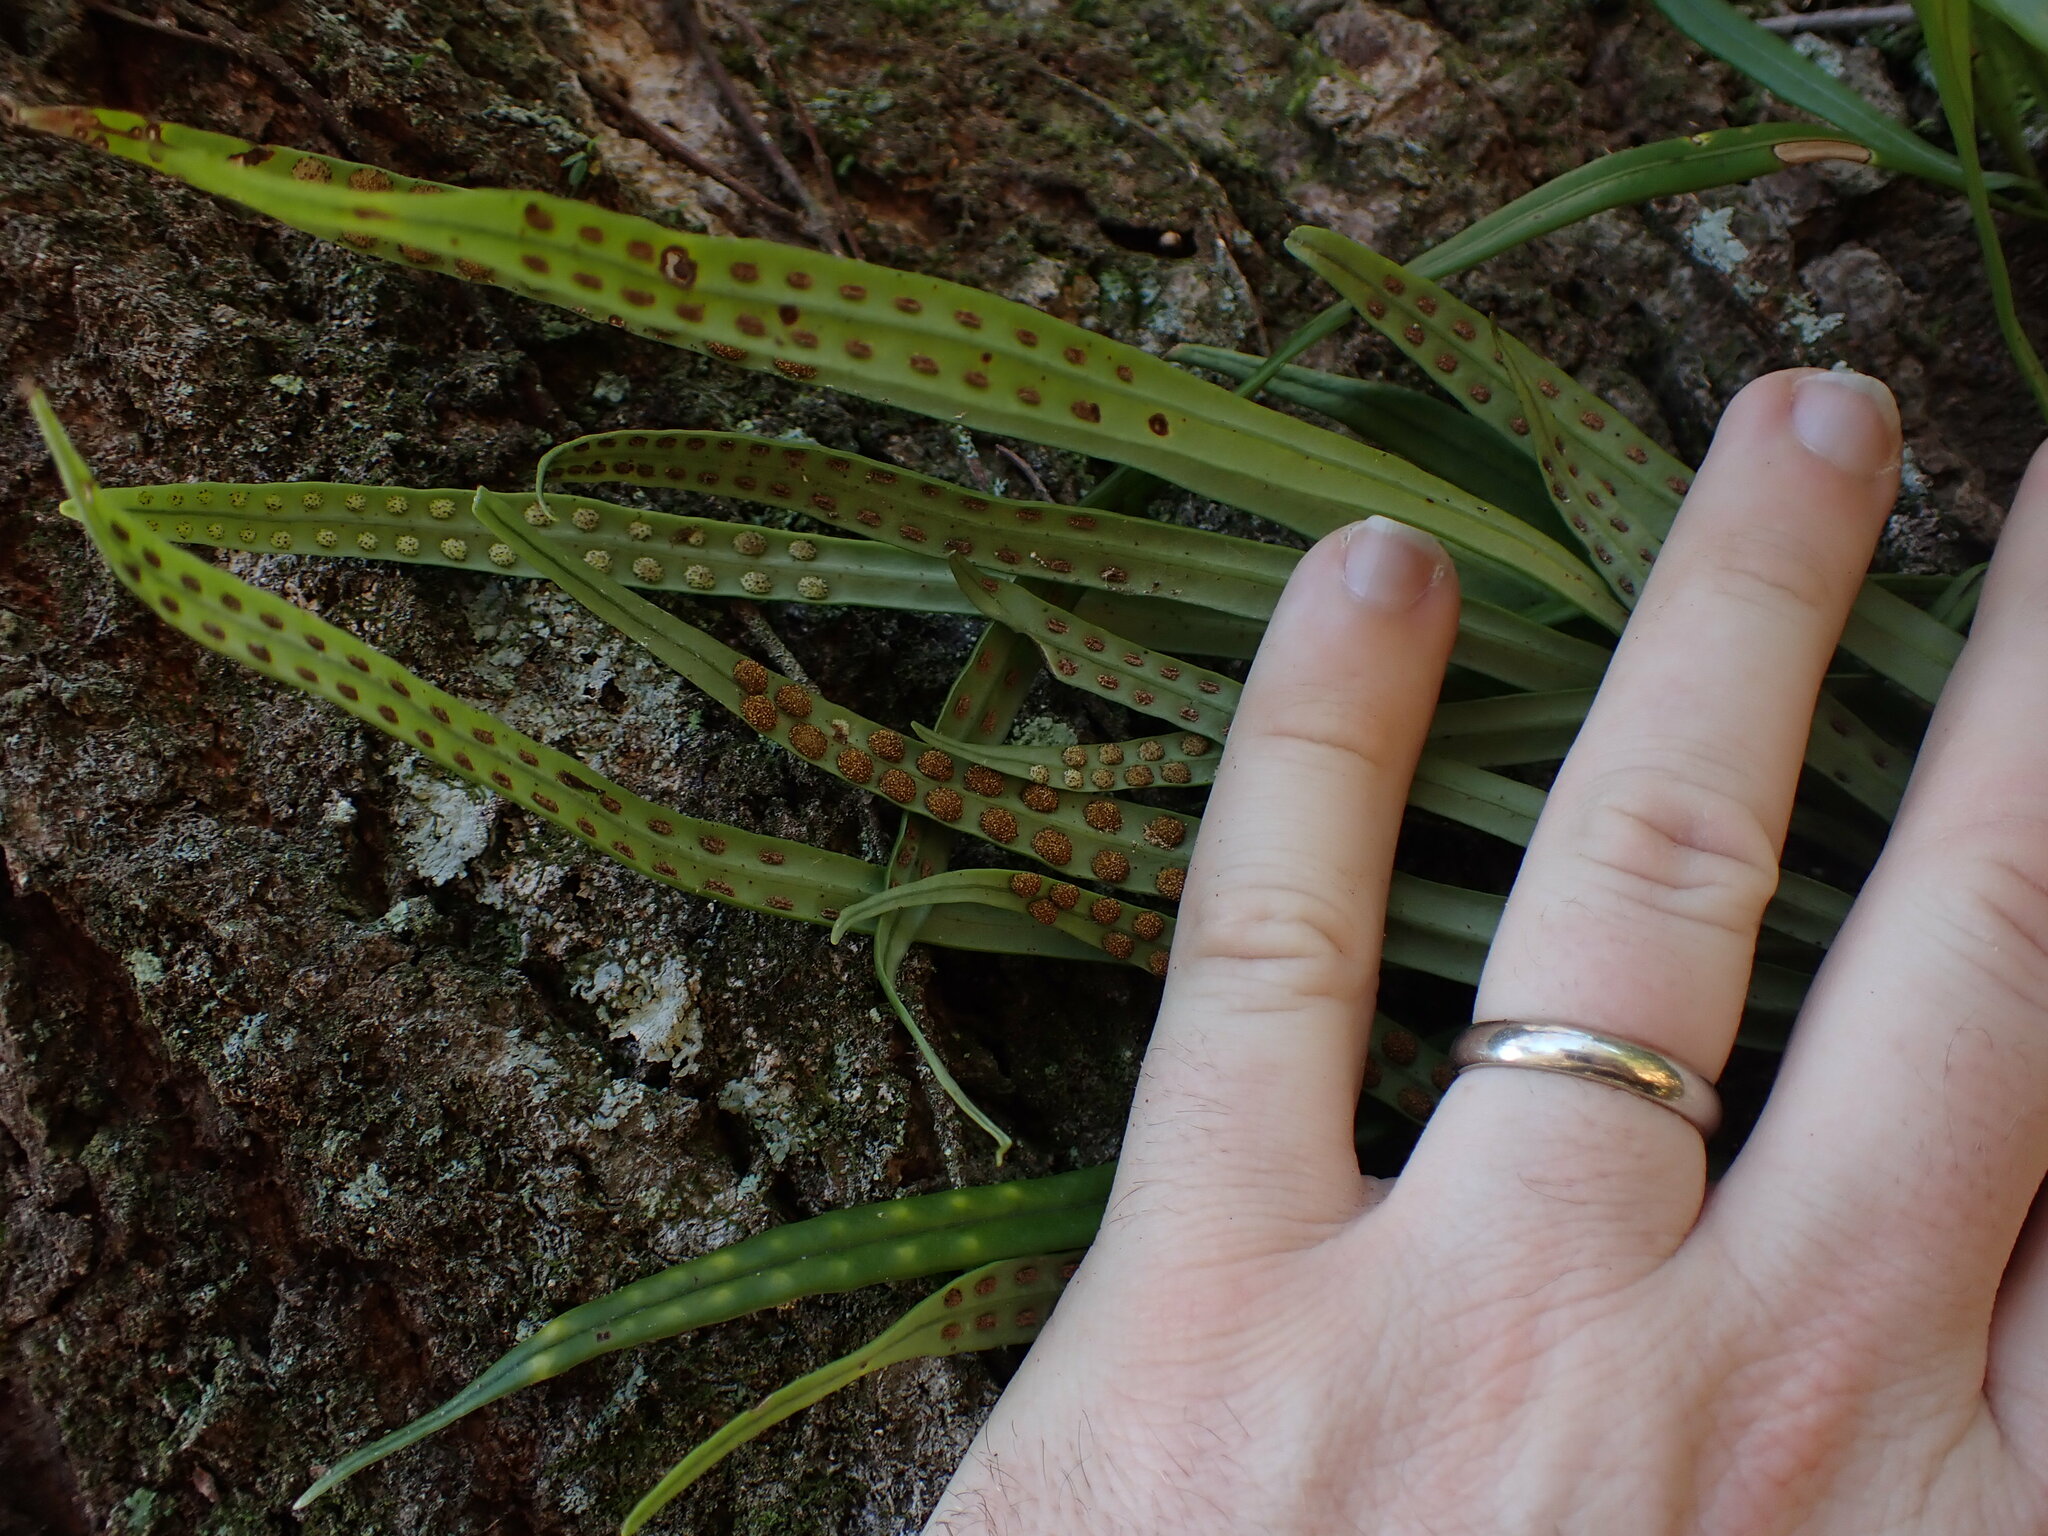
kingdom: Plantae
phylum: Tracheophyta
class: Polypodiopsida
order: Polypodiales
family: Polypodiaceae
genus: Lepisorus
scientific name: Lepisorus thunbergianus
